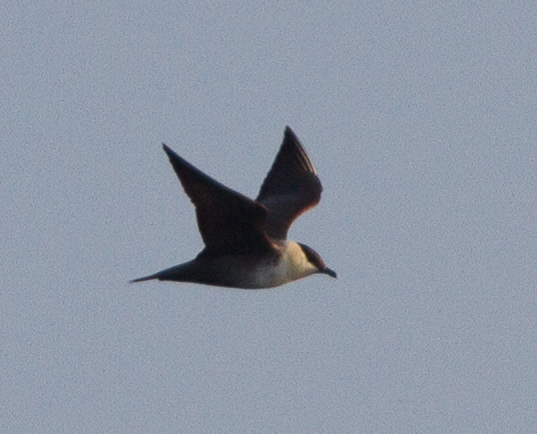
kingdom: Animalia
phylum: Chordata
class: Aves
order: Charadriiformes
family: Stercorariidae
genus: Stercorarius
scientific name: Stercorarius longicaudus
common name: Long-tailed jaeger
